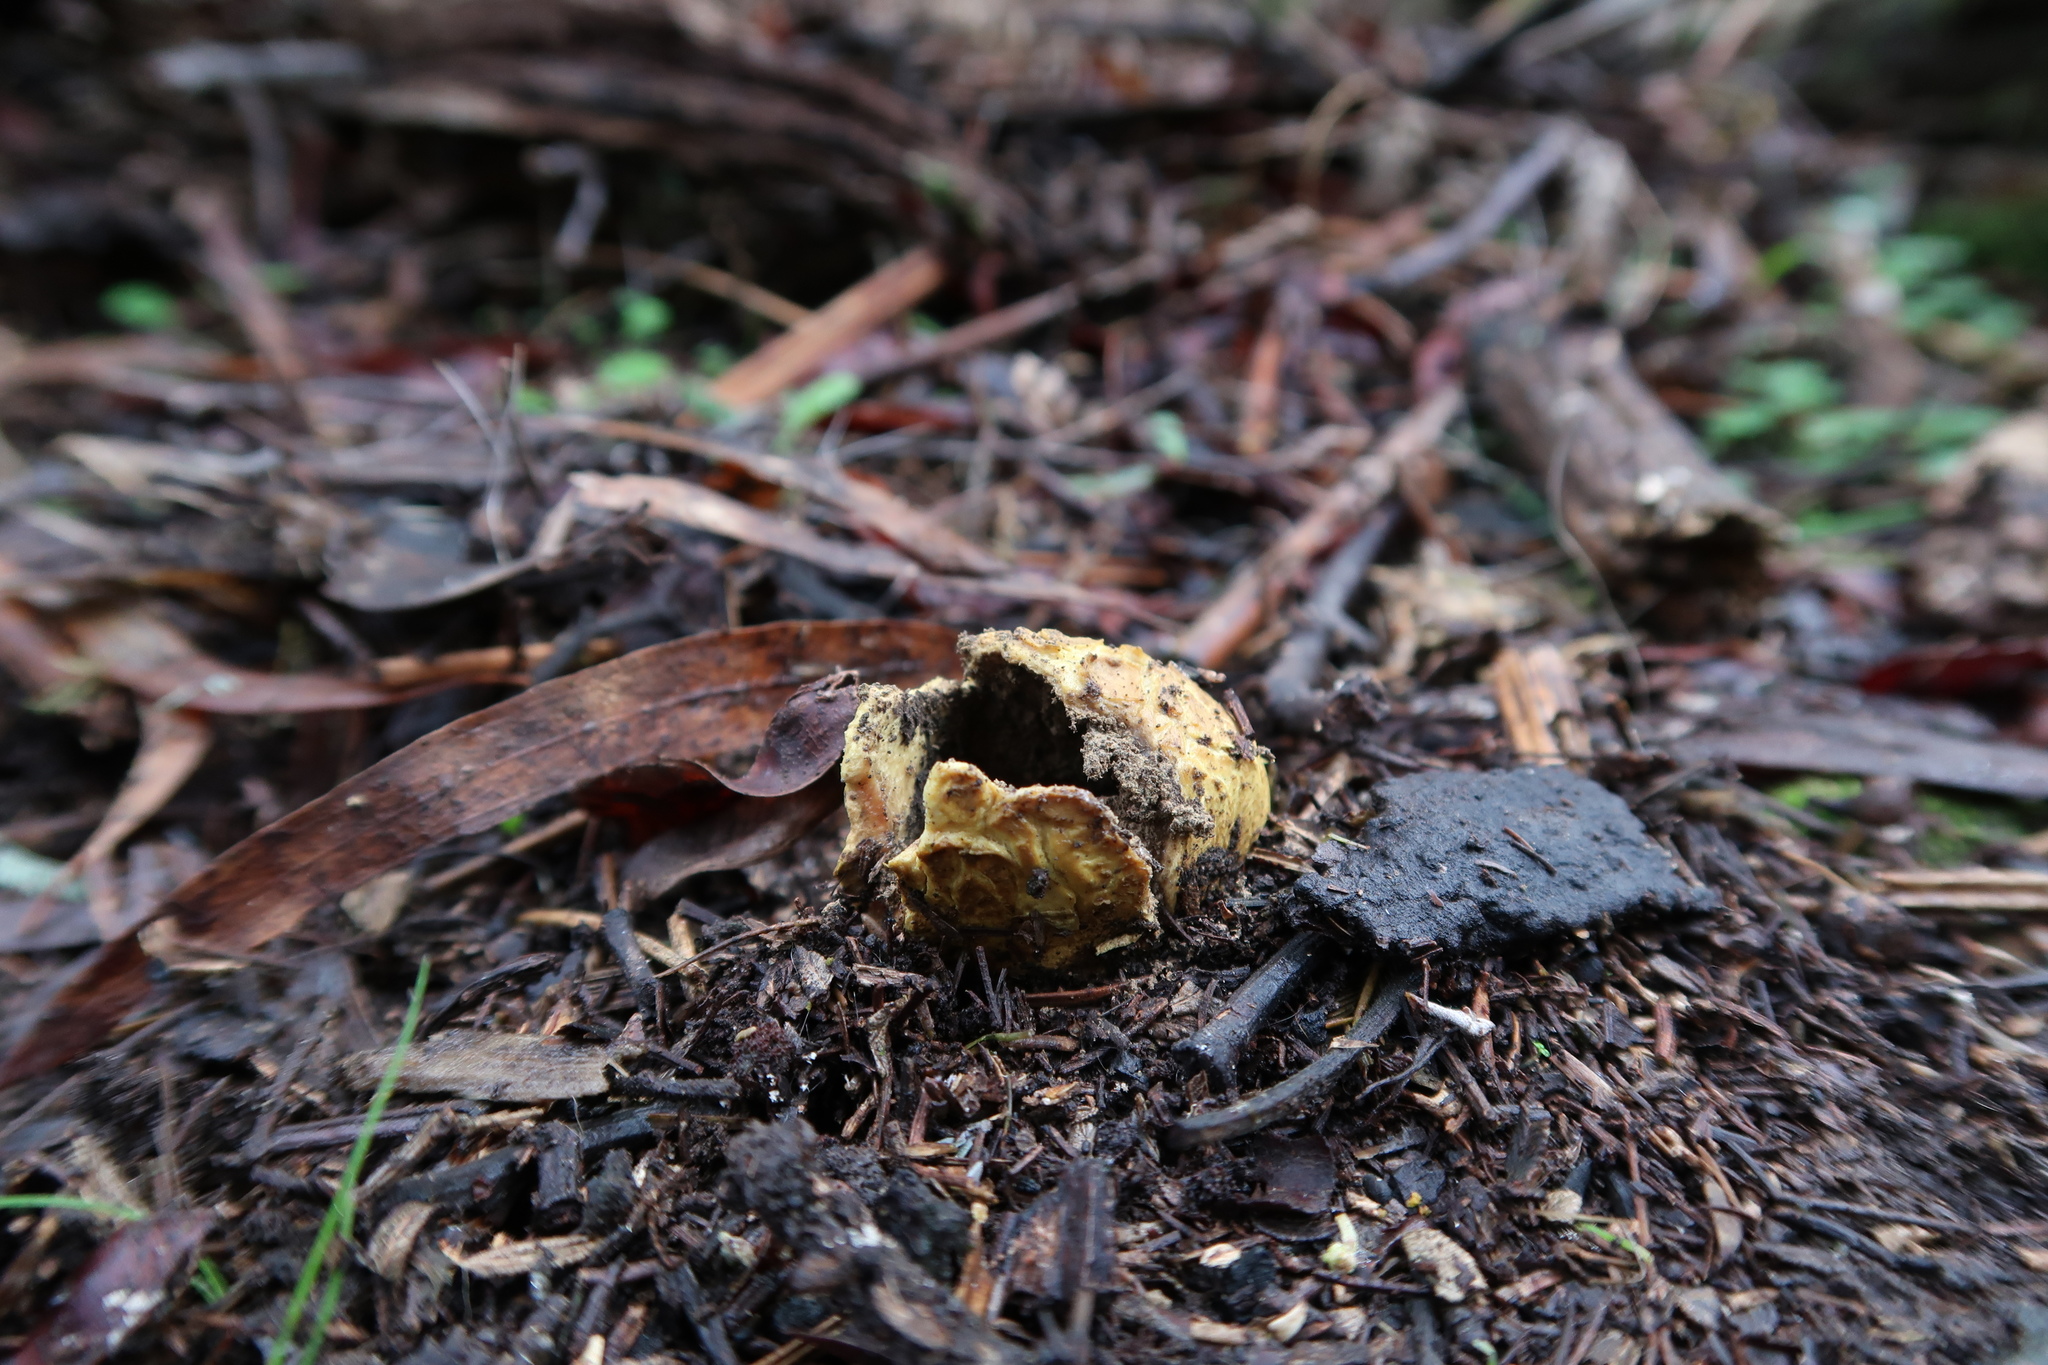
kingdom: Fungi
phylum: Basidiomycota
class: Agaricomycetes
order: Boletales
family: Sclerodermataceae
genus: Scleroderma
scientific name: Scleroderma cepa
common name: Onion earthball
